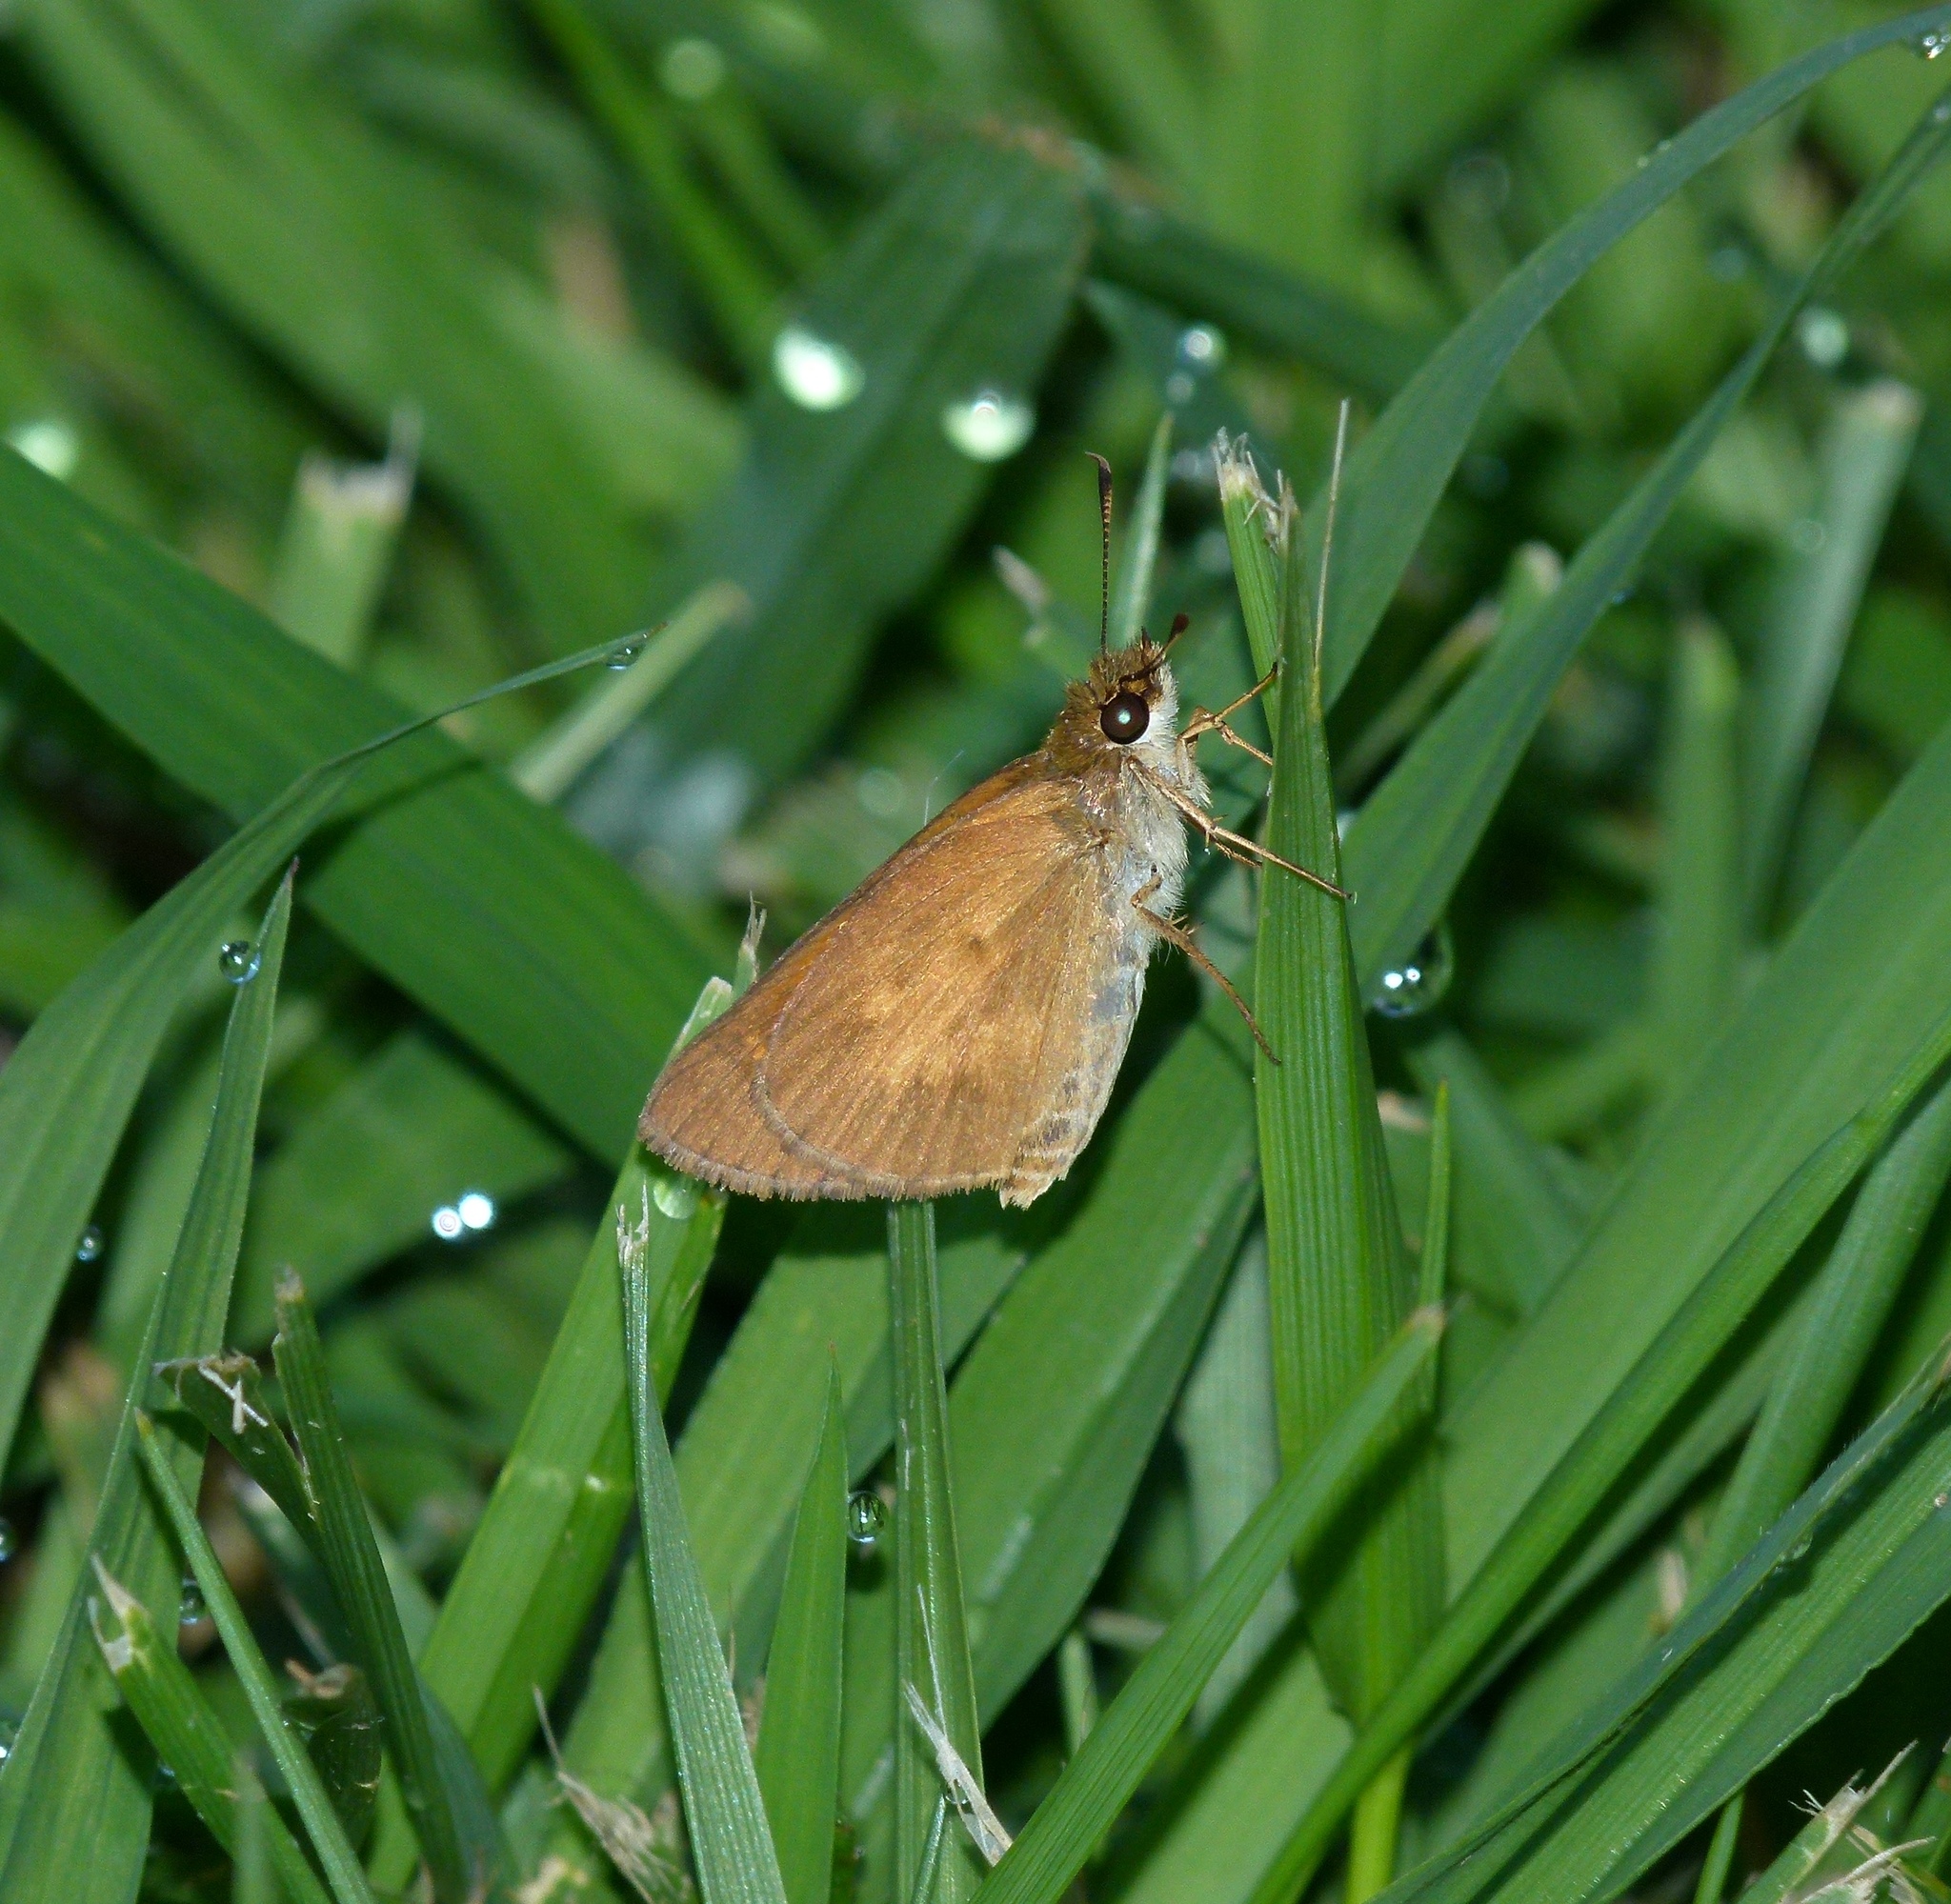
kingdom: Animalia
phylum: Arthropoda
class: Insecta
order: Lepidoptera
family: Hesperiidae
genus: Poanes
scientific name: Poanes viator
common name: Broad-winged skipper
